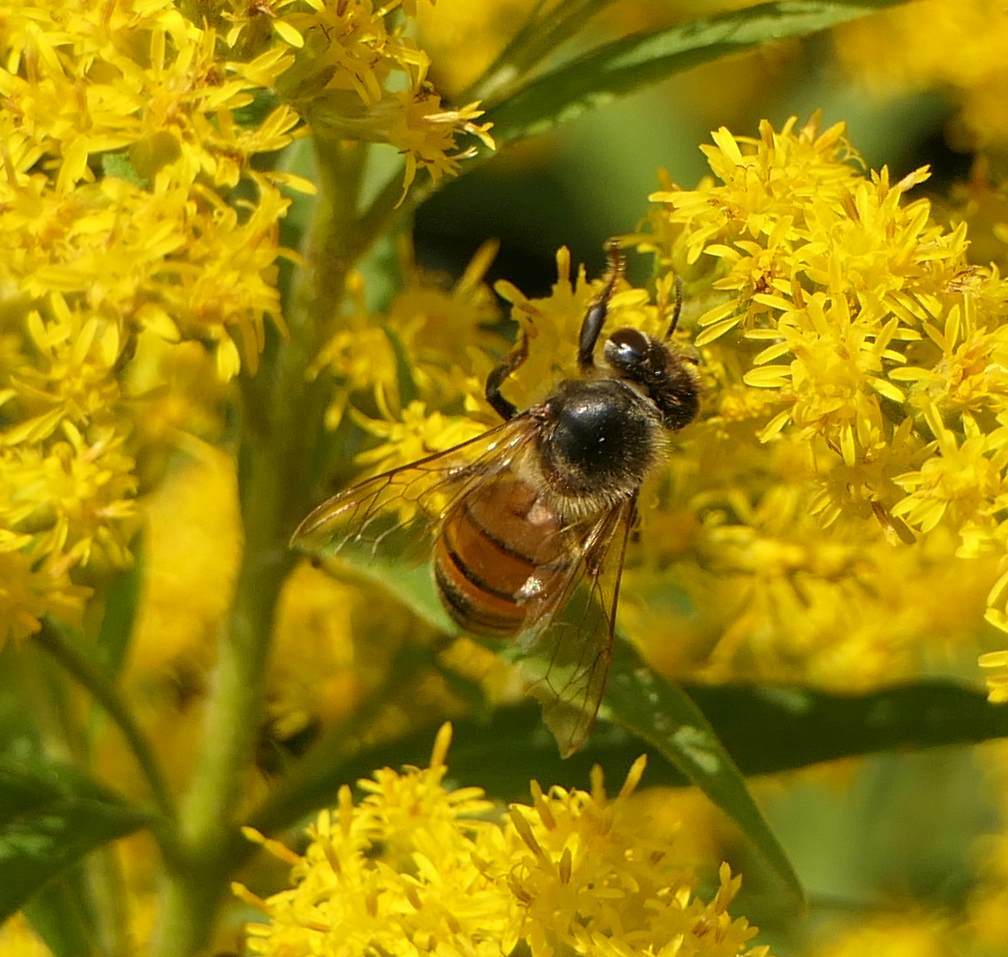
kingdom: Animalia
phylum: Arthropoda
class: Insecta
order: Hymenoptera
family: Apidae
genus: Apis
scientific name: Apis mellifera
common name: Honey bee
